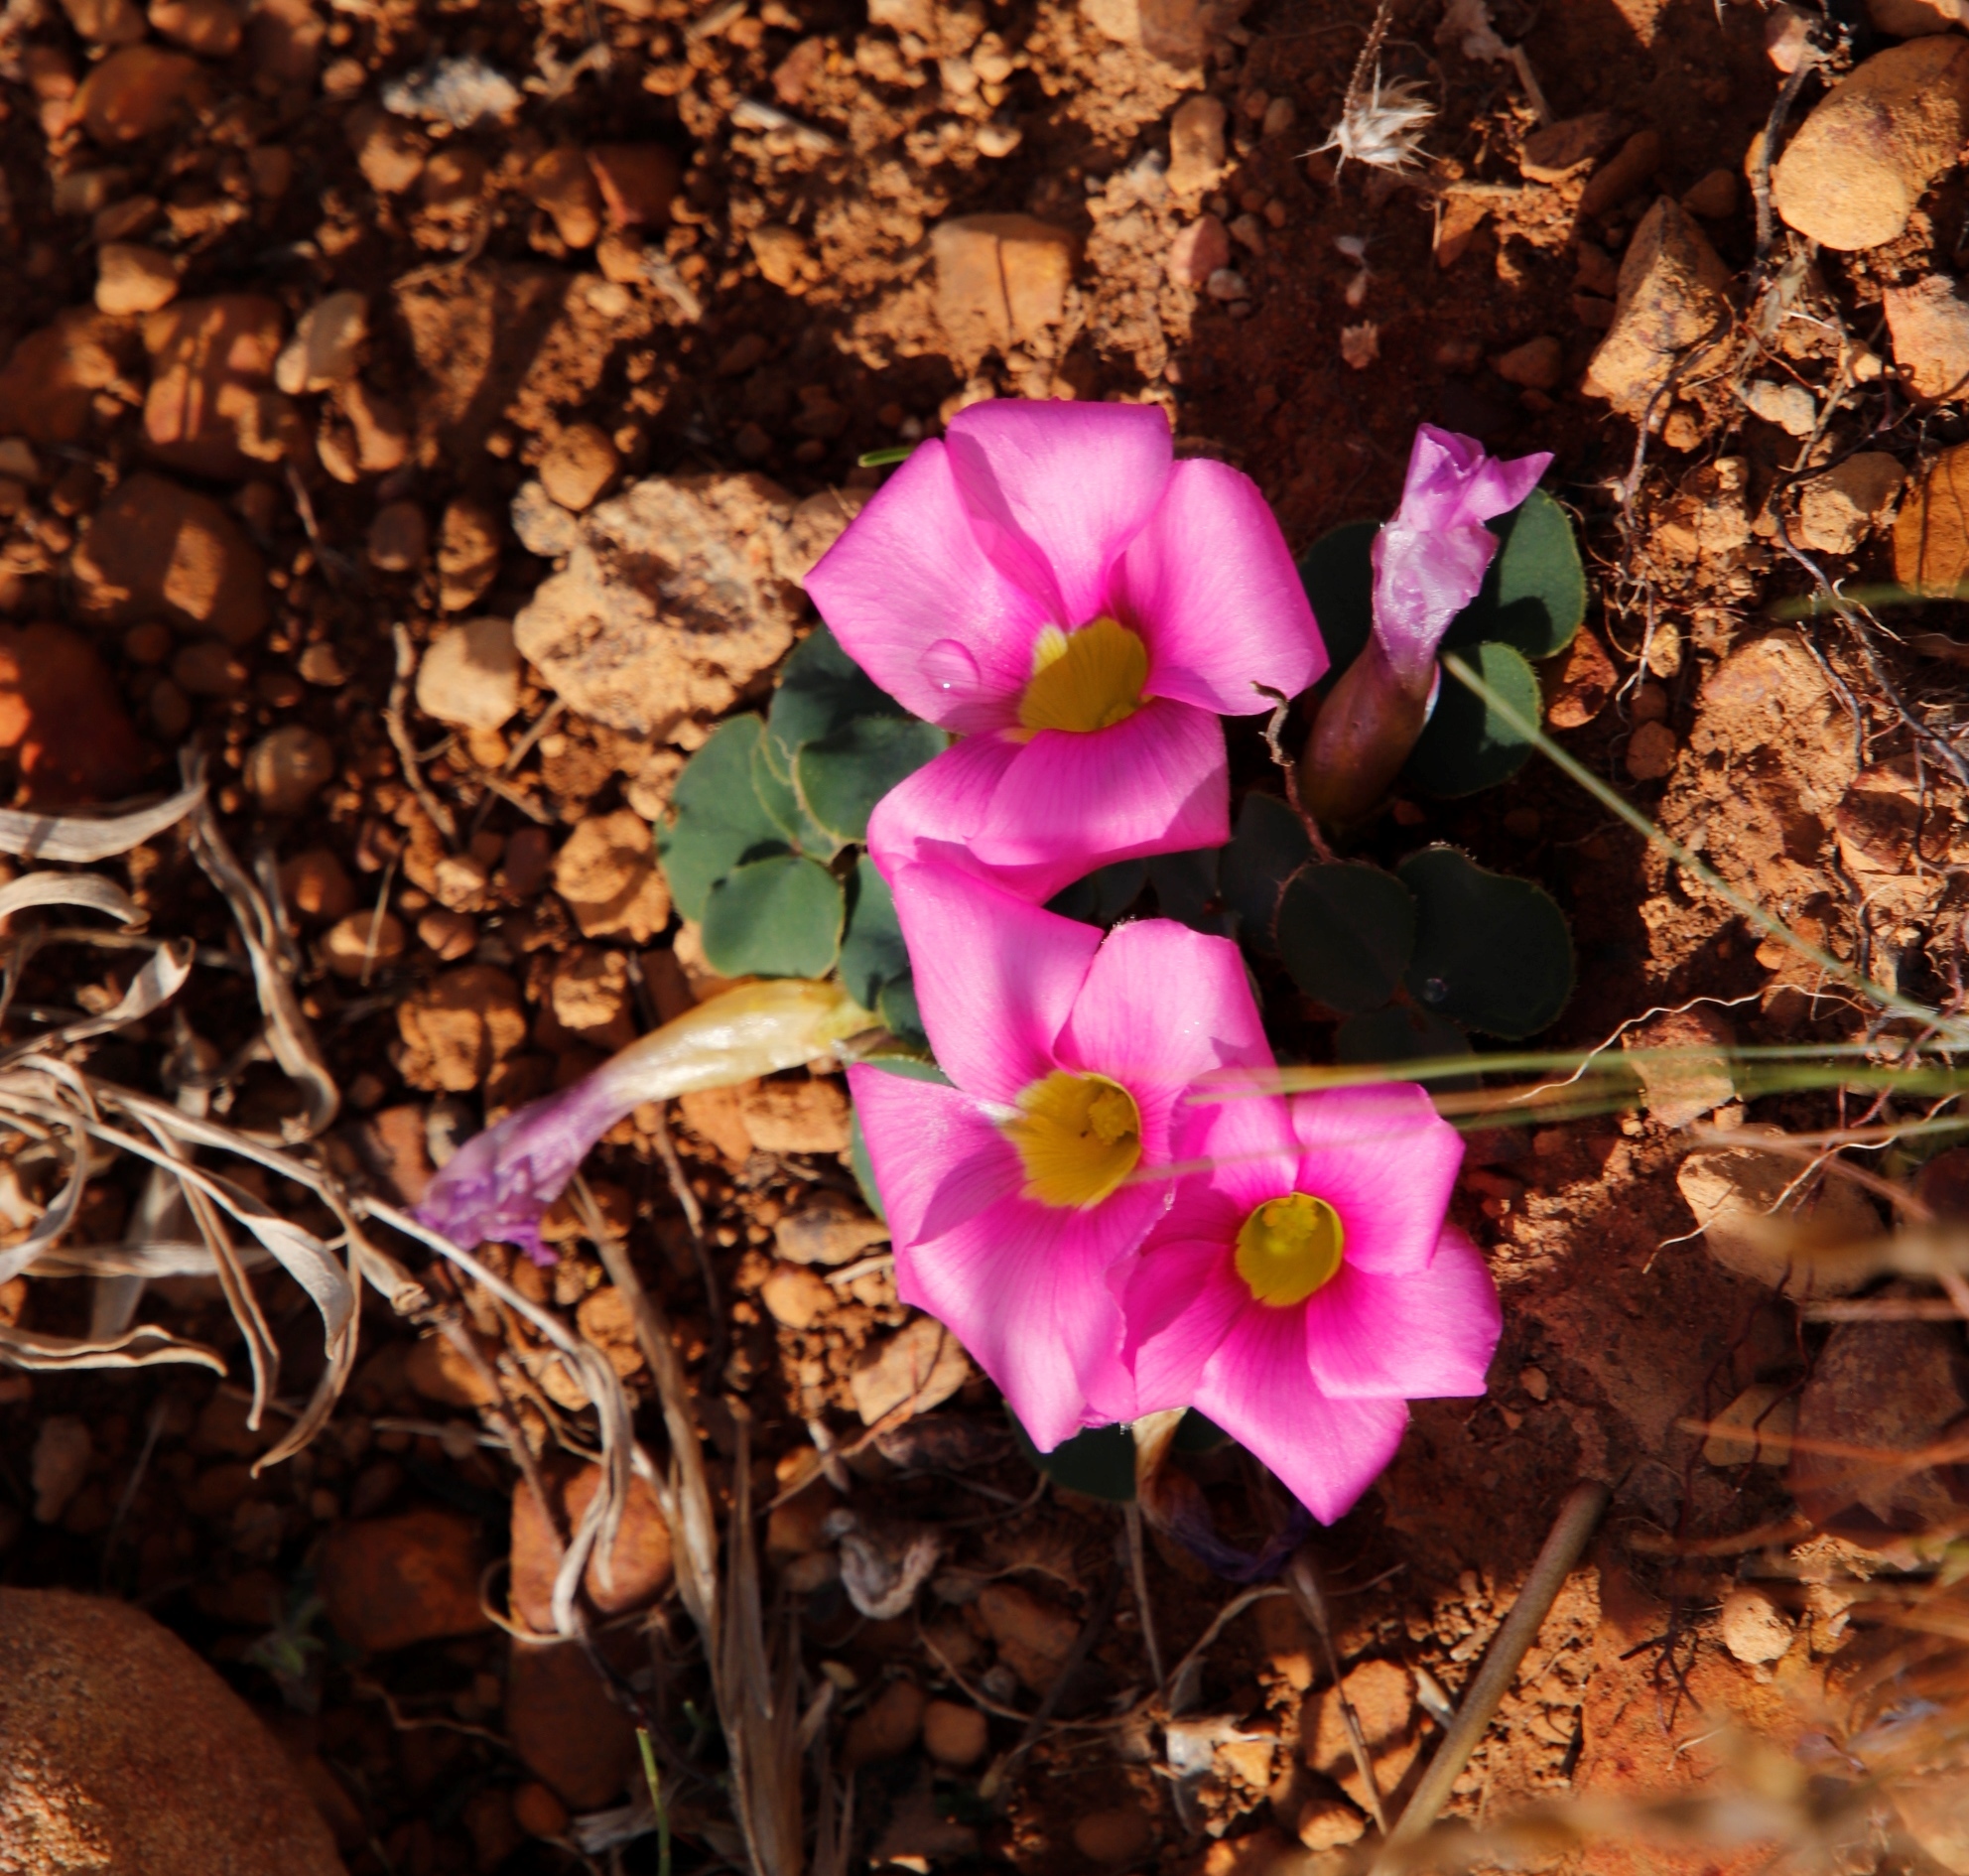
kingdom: Plantae
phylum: Tracheophyta
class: Magnoliopsida
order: Oxalidales
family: Oxalidaceae
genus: Oxalis
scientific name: Oxalis purpurea
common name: Purple woodsorrel
